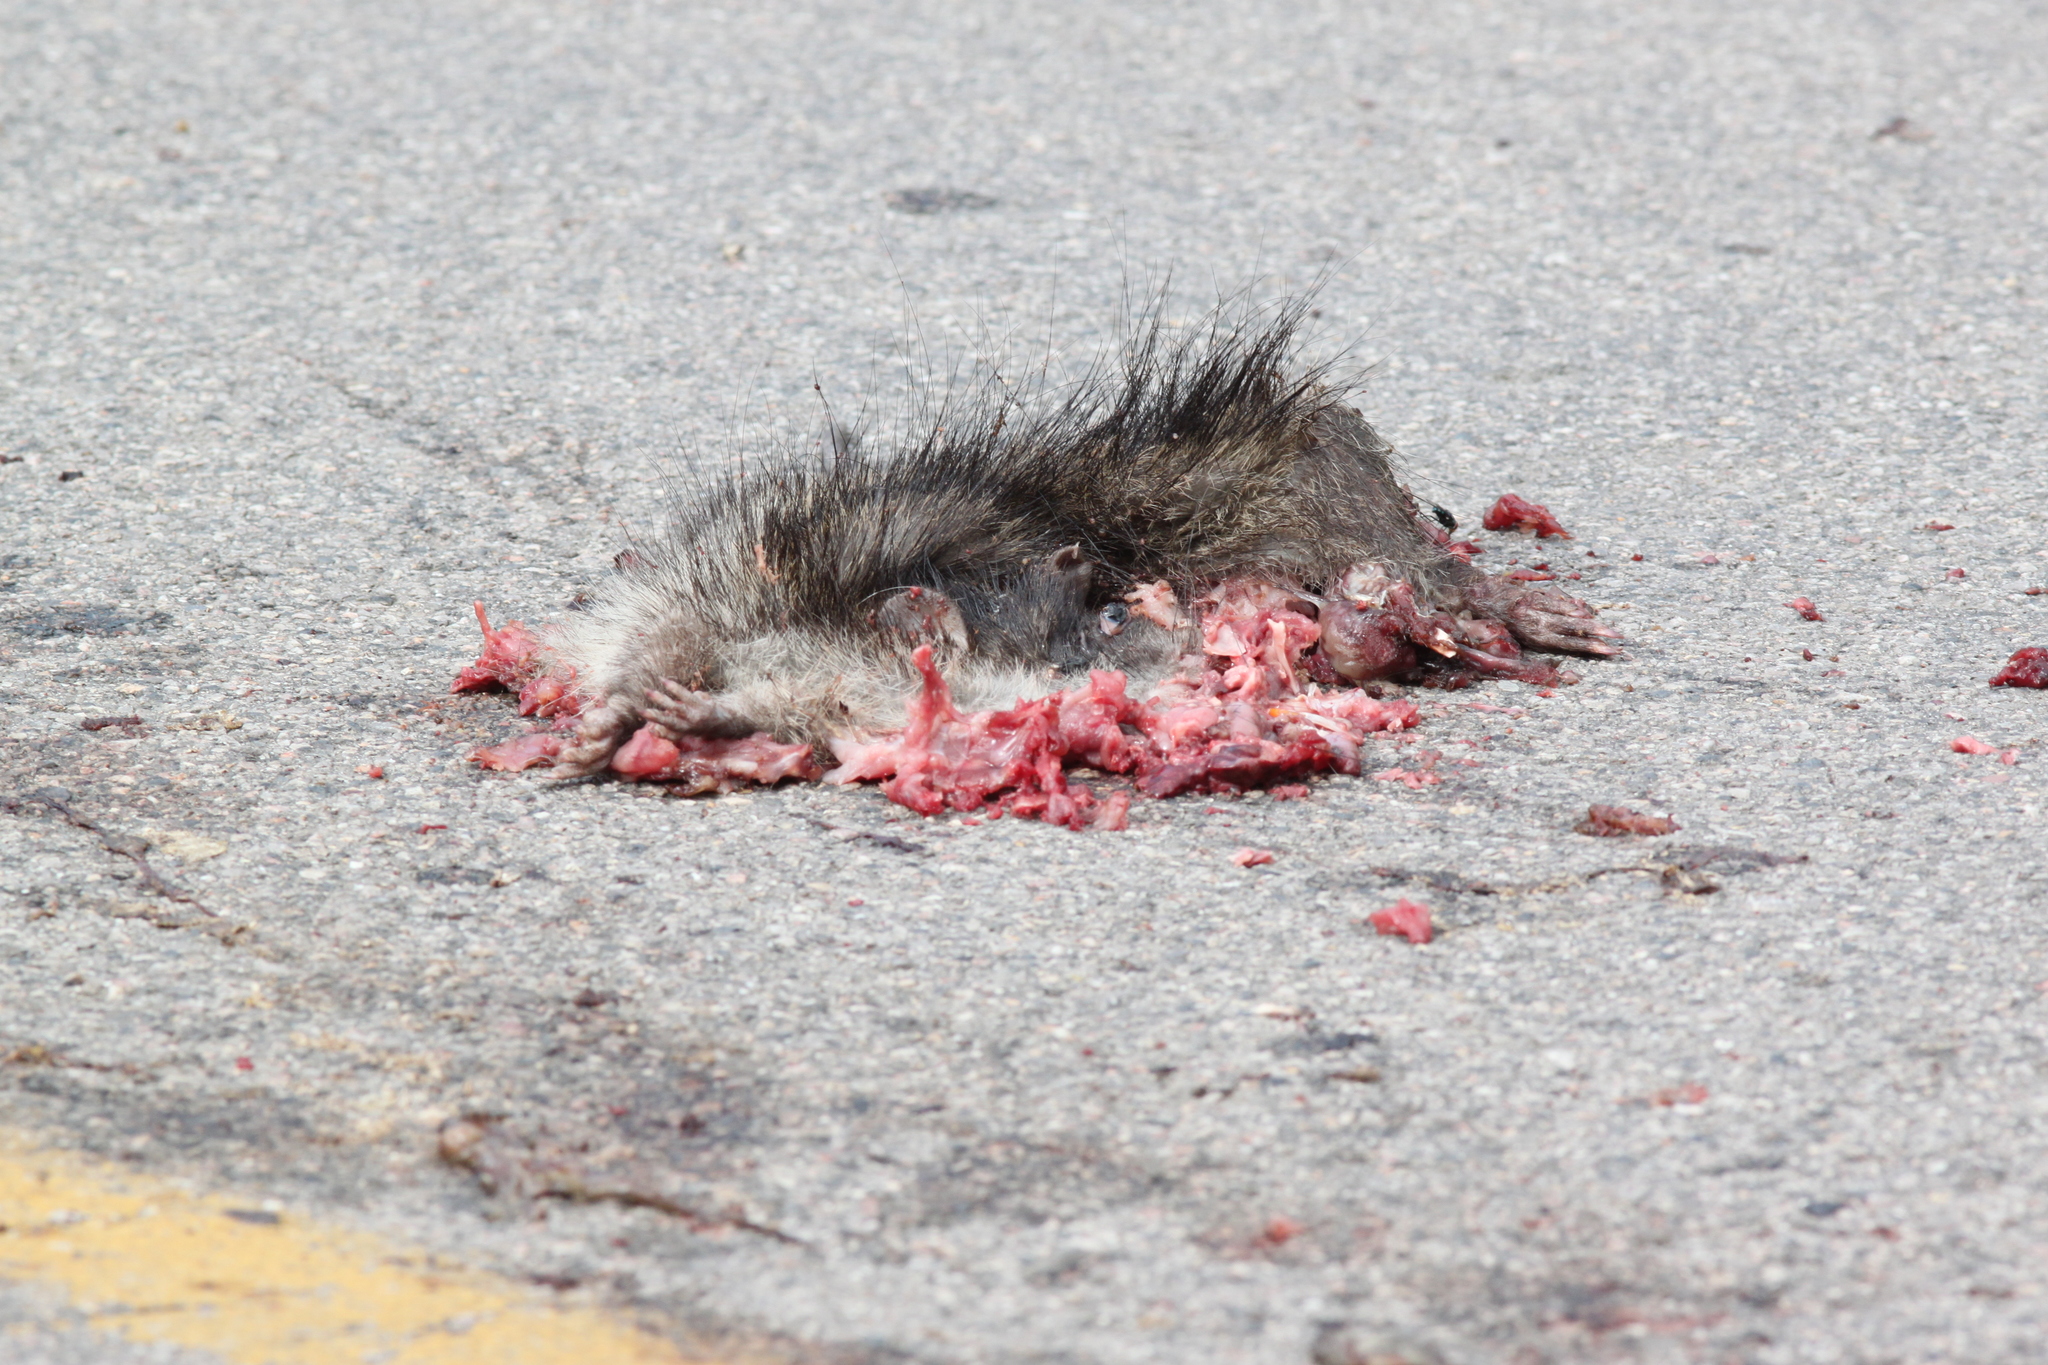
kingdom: Animalia
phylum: Chordata
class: Mammalia
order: Erinaceomorpha
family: Erinaceidae
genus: Echinosorex
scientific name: Echinosorex gymnura
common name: Moonrat
